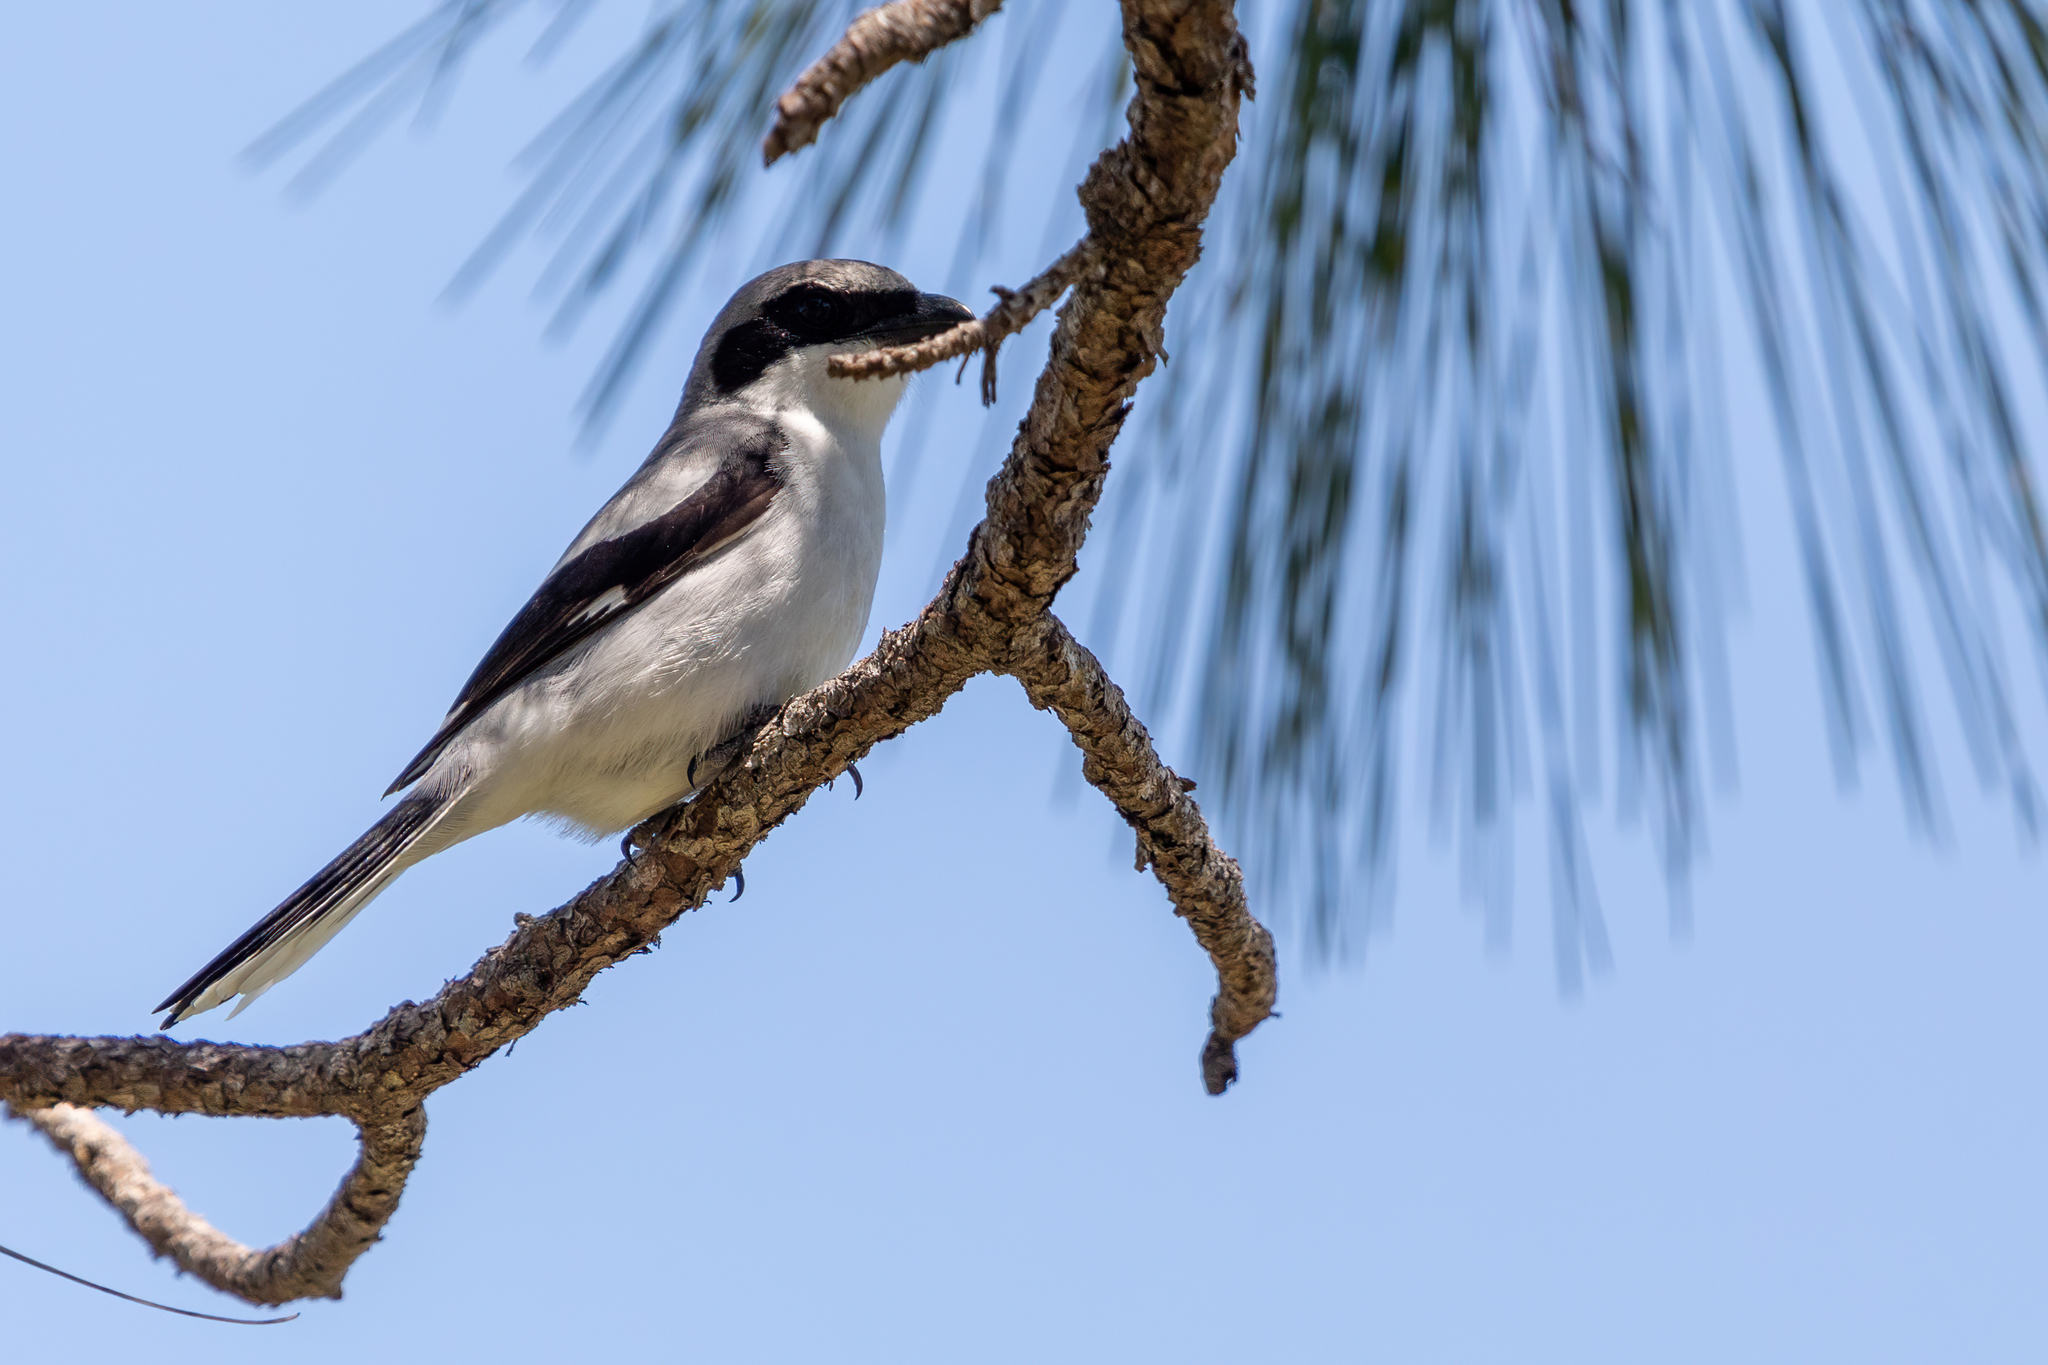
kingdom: Animalia
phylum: Chordata
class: Aves
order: Passeriformes
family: Laniidae
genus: Lanius
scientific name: Lanius ludovicianus
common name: Loggerhead shrike
